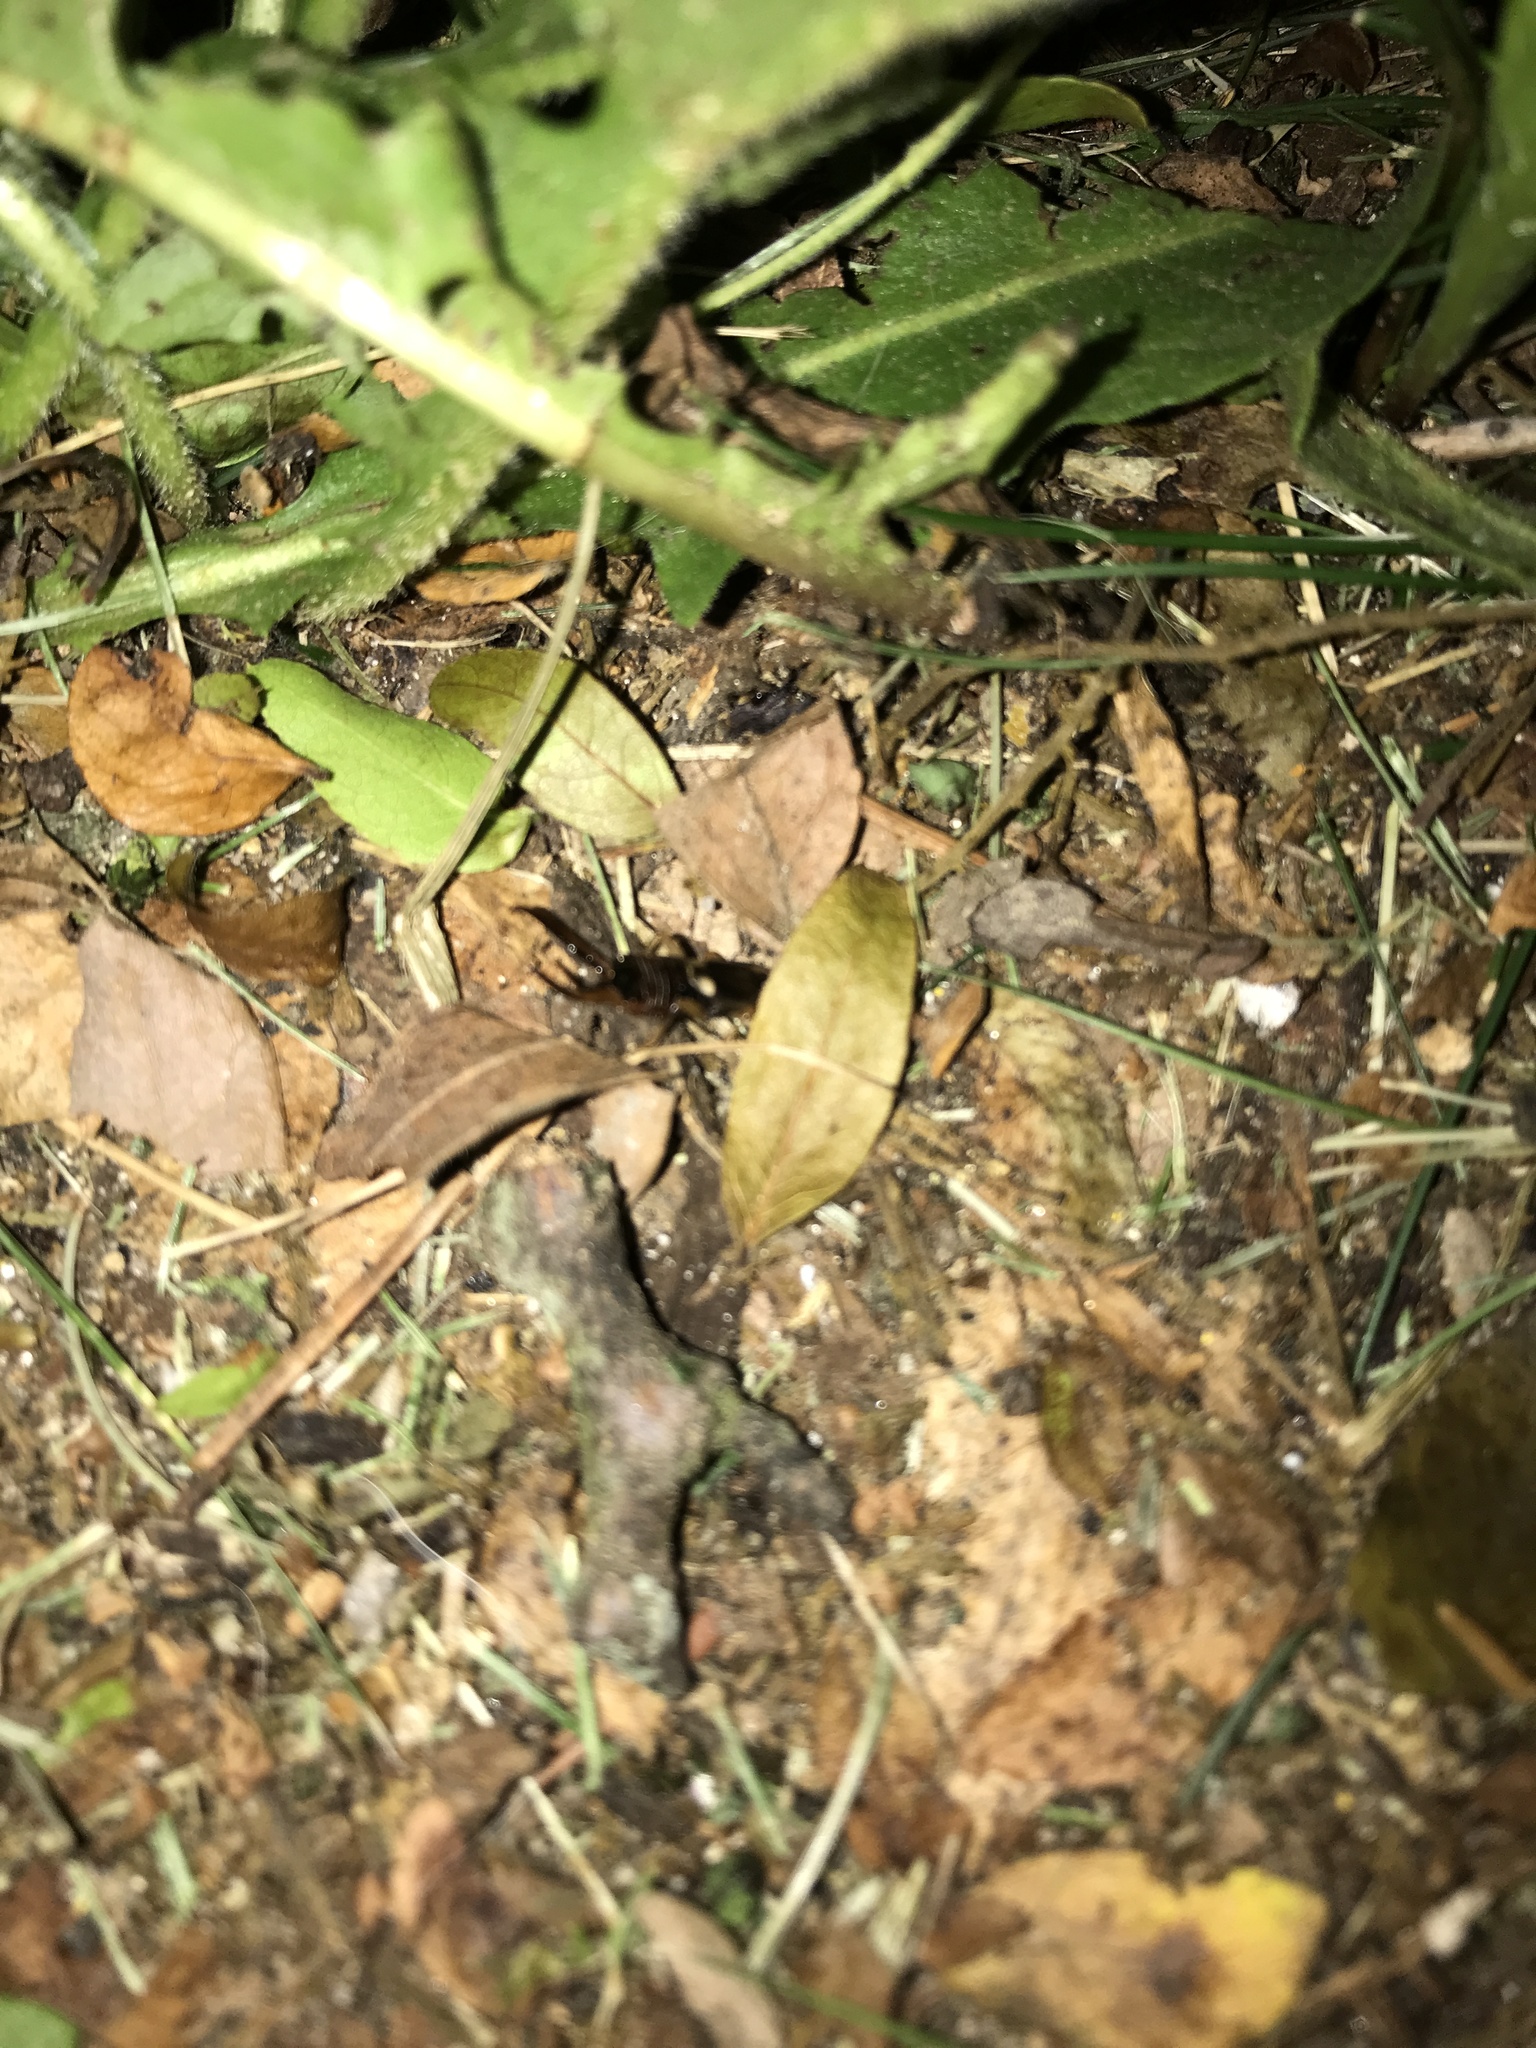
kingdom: Animalia
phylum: Arthropoda
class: Insecta
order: Dermaptera
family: Forficulidae
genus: Forficula
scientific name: Forficula
